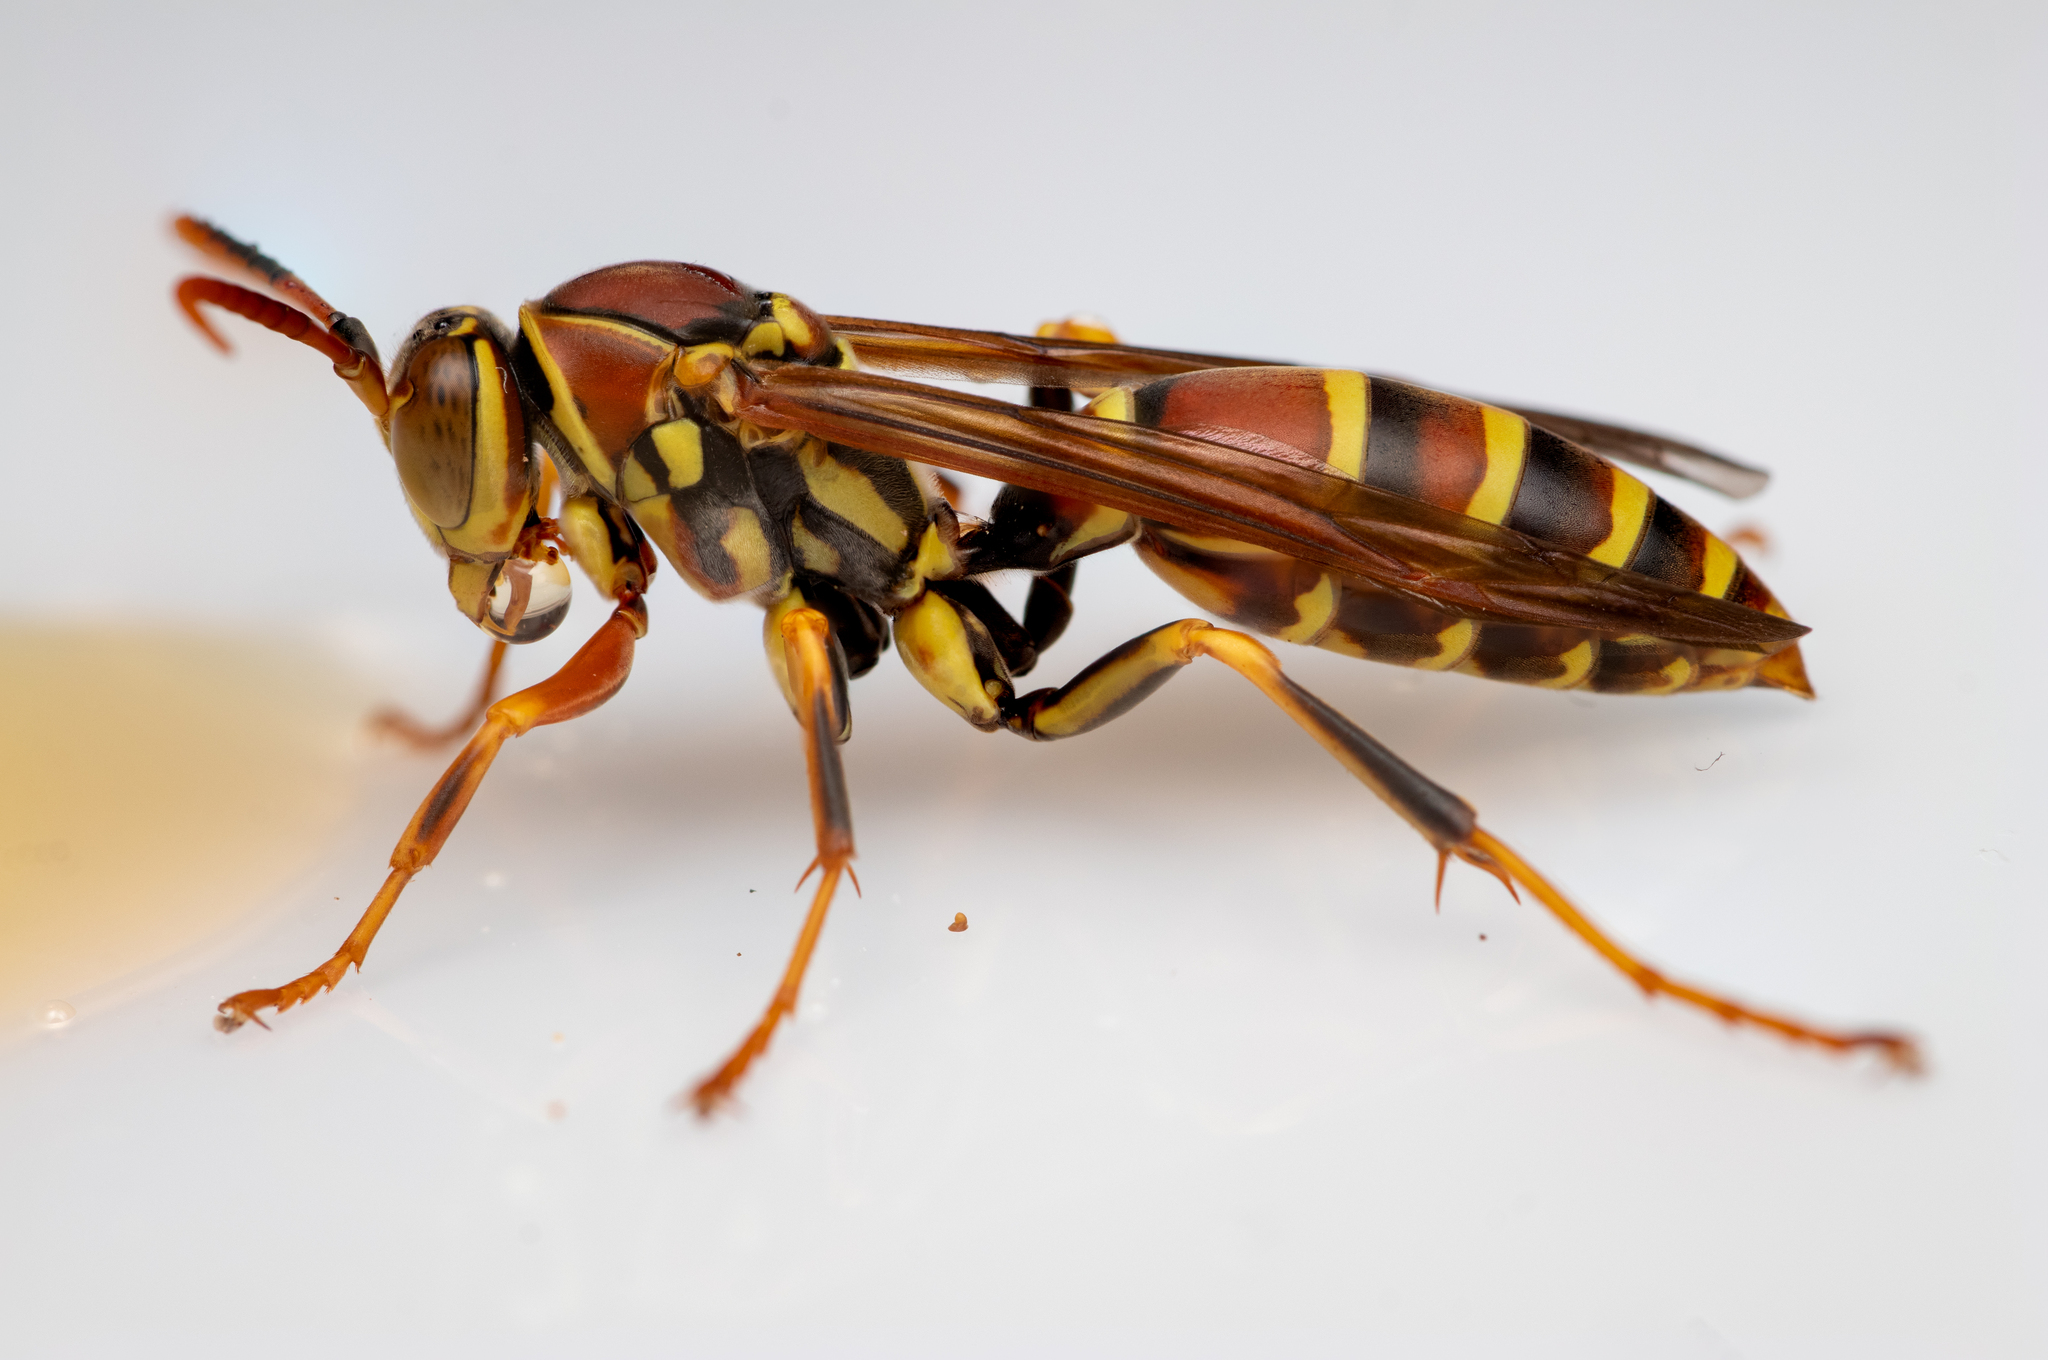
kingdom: Animalia
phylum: Arthropoda
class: Insecta
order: Hymenoptera
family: Eumenidae
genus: Polistes
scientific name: Polistes exclamans
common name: Paper wasp
